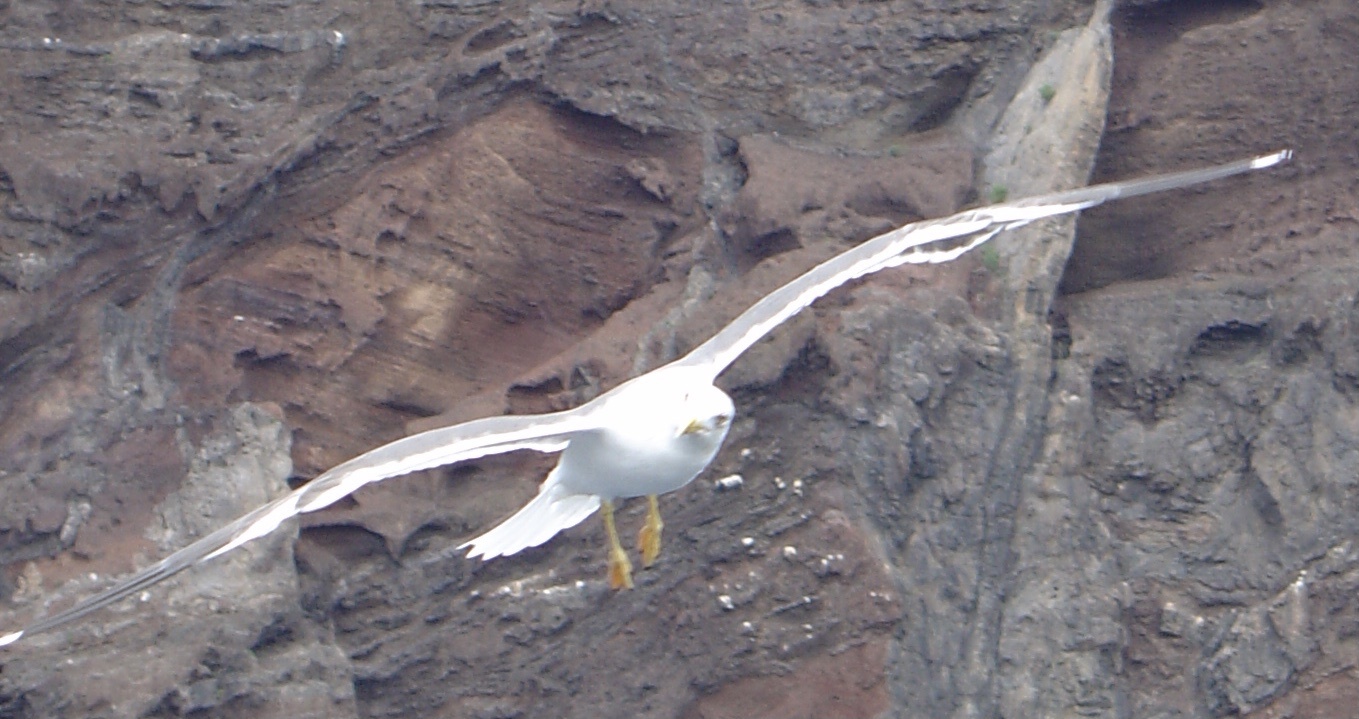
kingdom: Animalia
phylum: Chordata
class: Aves
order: Charadriiformes
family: Laridae
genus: Larus
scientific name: Larus michahellis
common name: Yellow-legged gull
